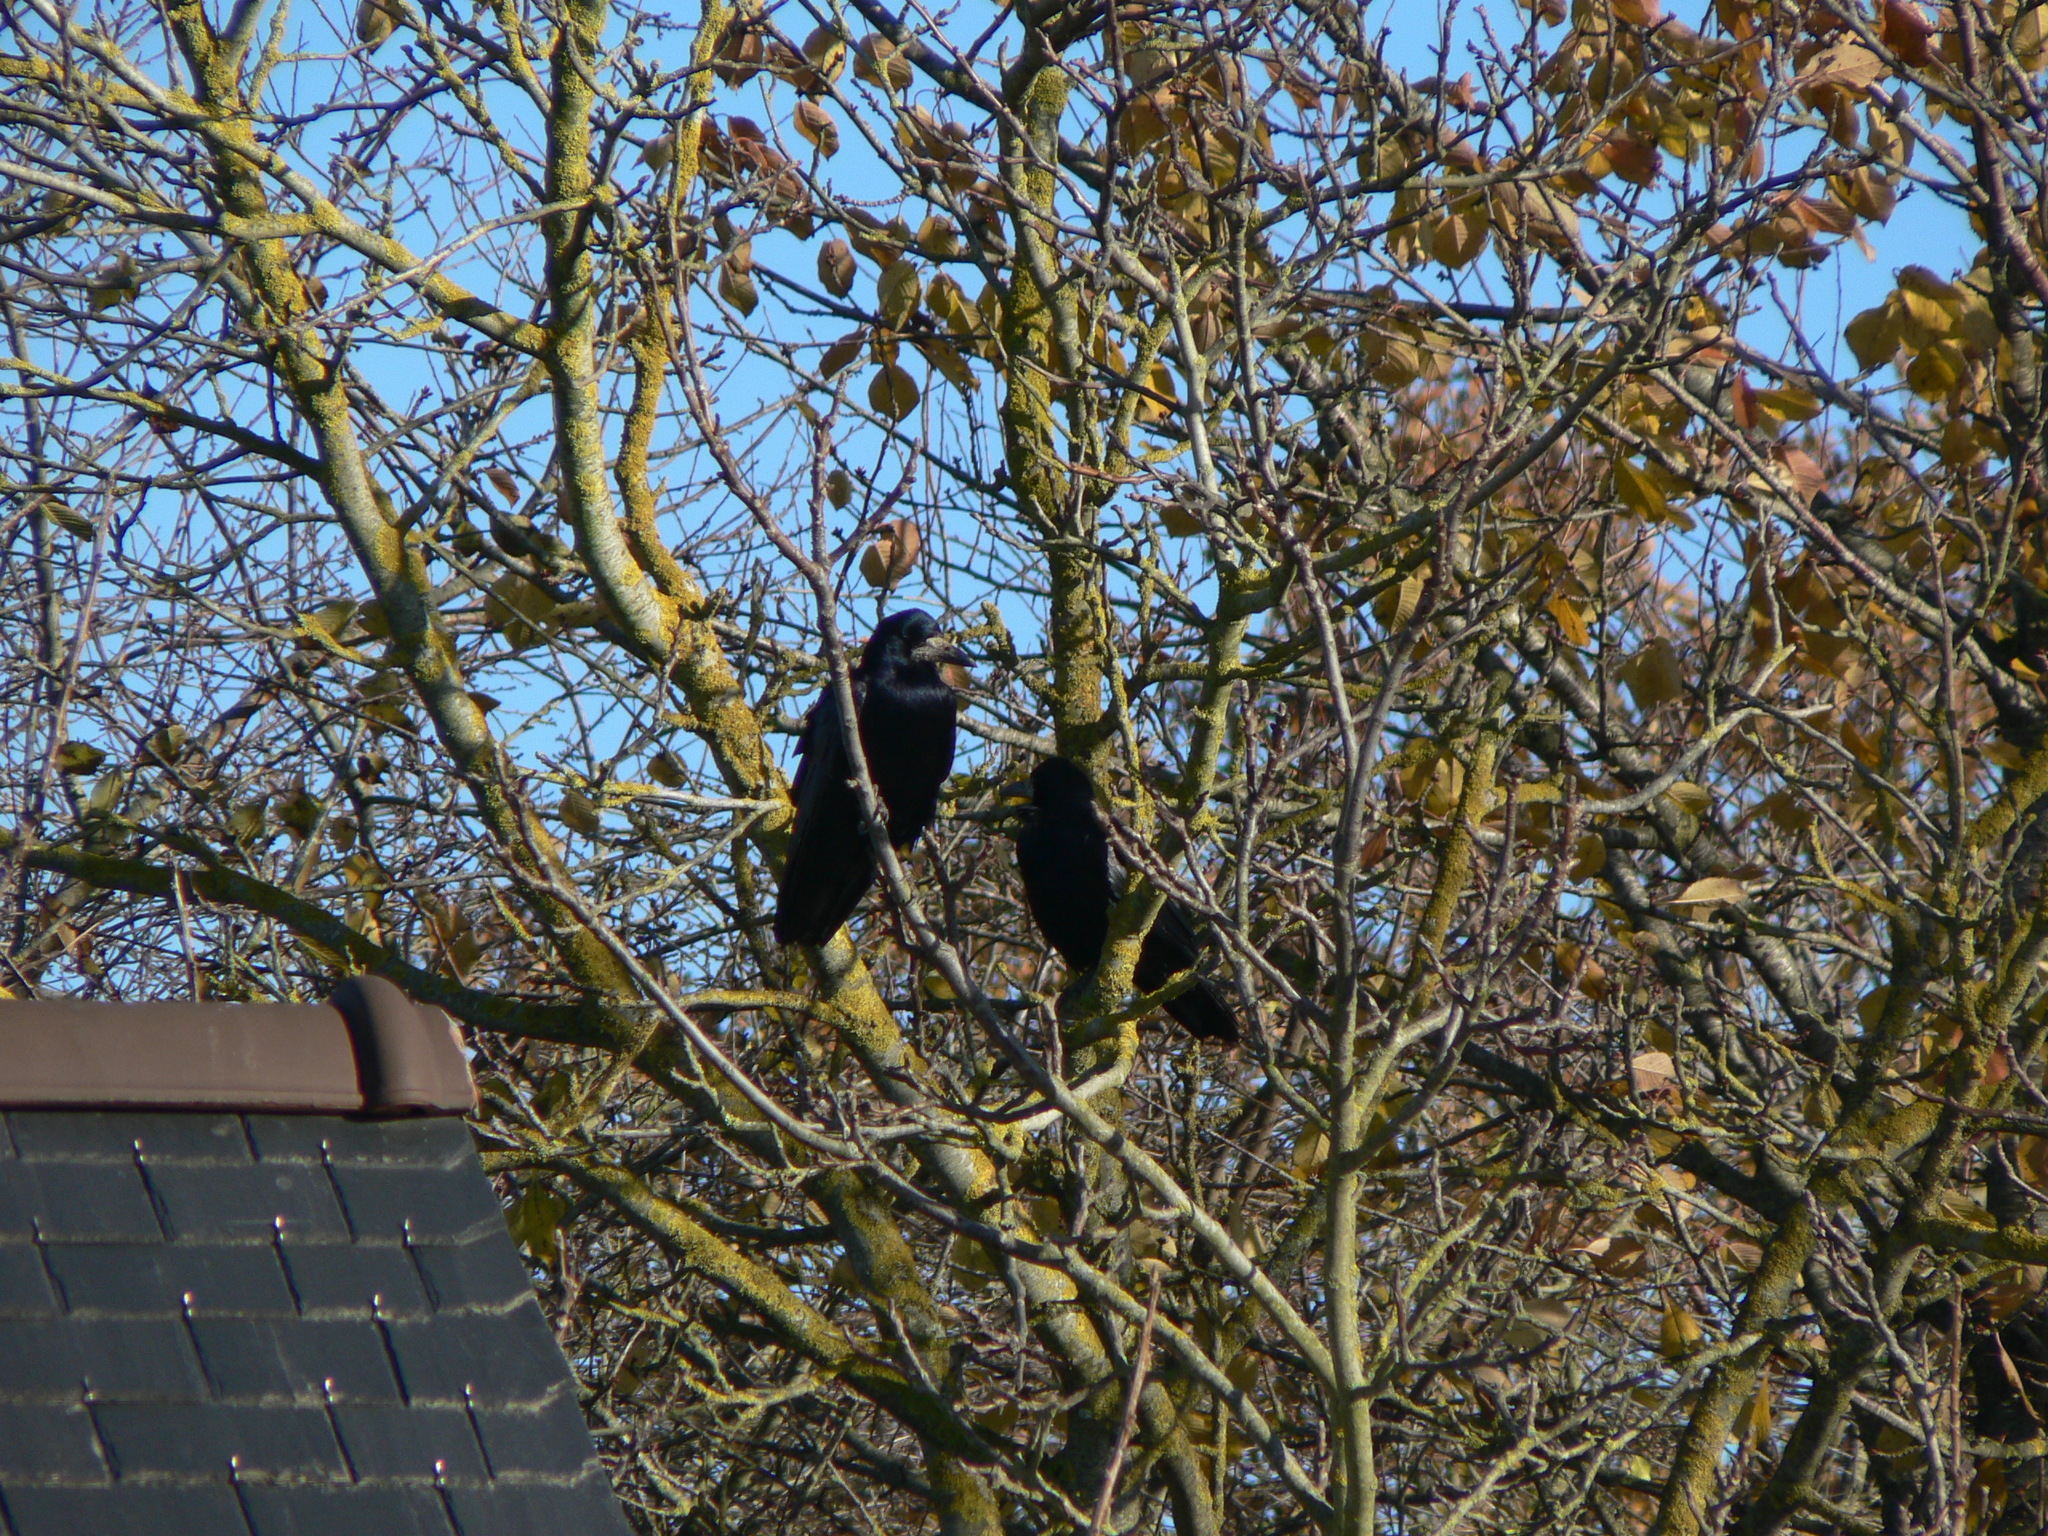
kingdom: Animalia
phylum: Chordata
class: Aves
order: Passeriformes
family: Corvidae
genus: Corvus
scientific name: Corvus frugilegus
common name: Rook
